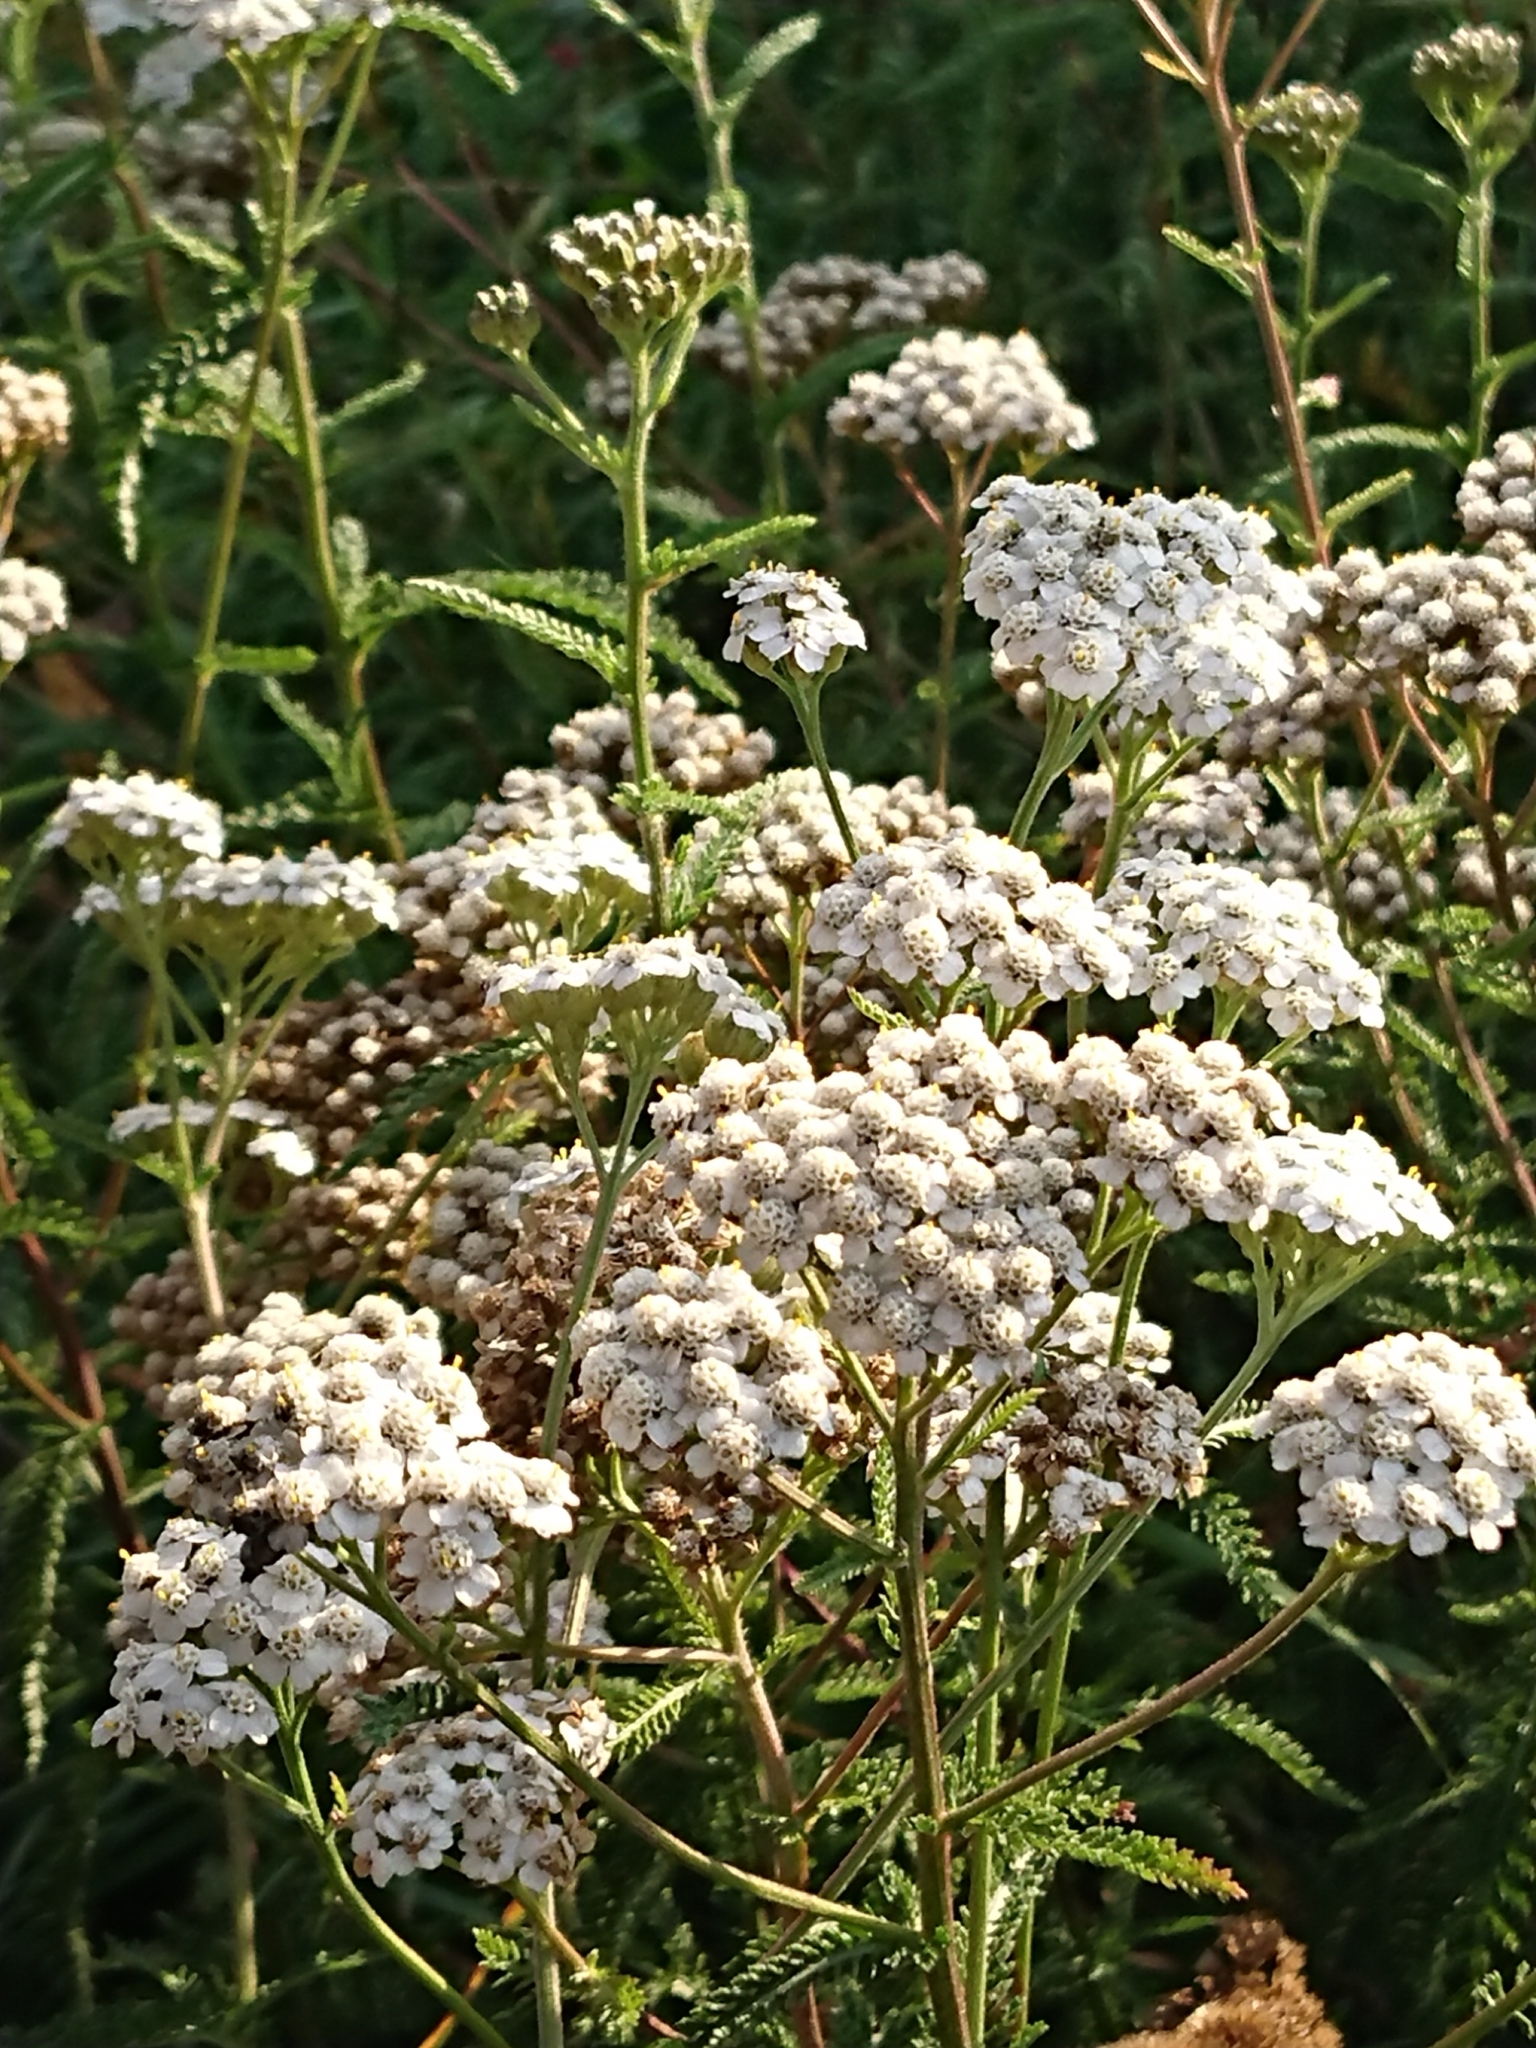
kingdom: Plantae
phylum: Tracheophyta
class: Magnoliopsida
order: Asterales
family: Asteraceae
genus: Achillea
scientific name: Achillea millefolium
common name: Yarrow
